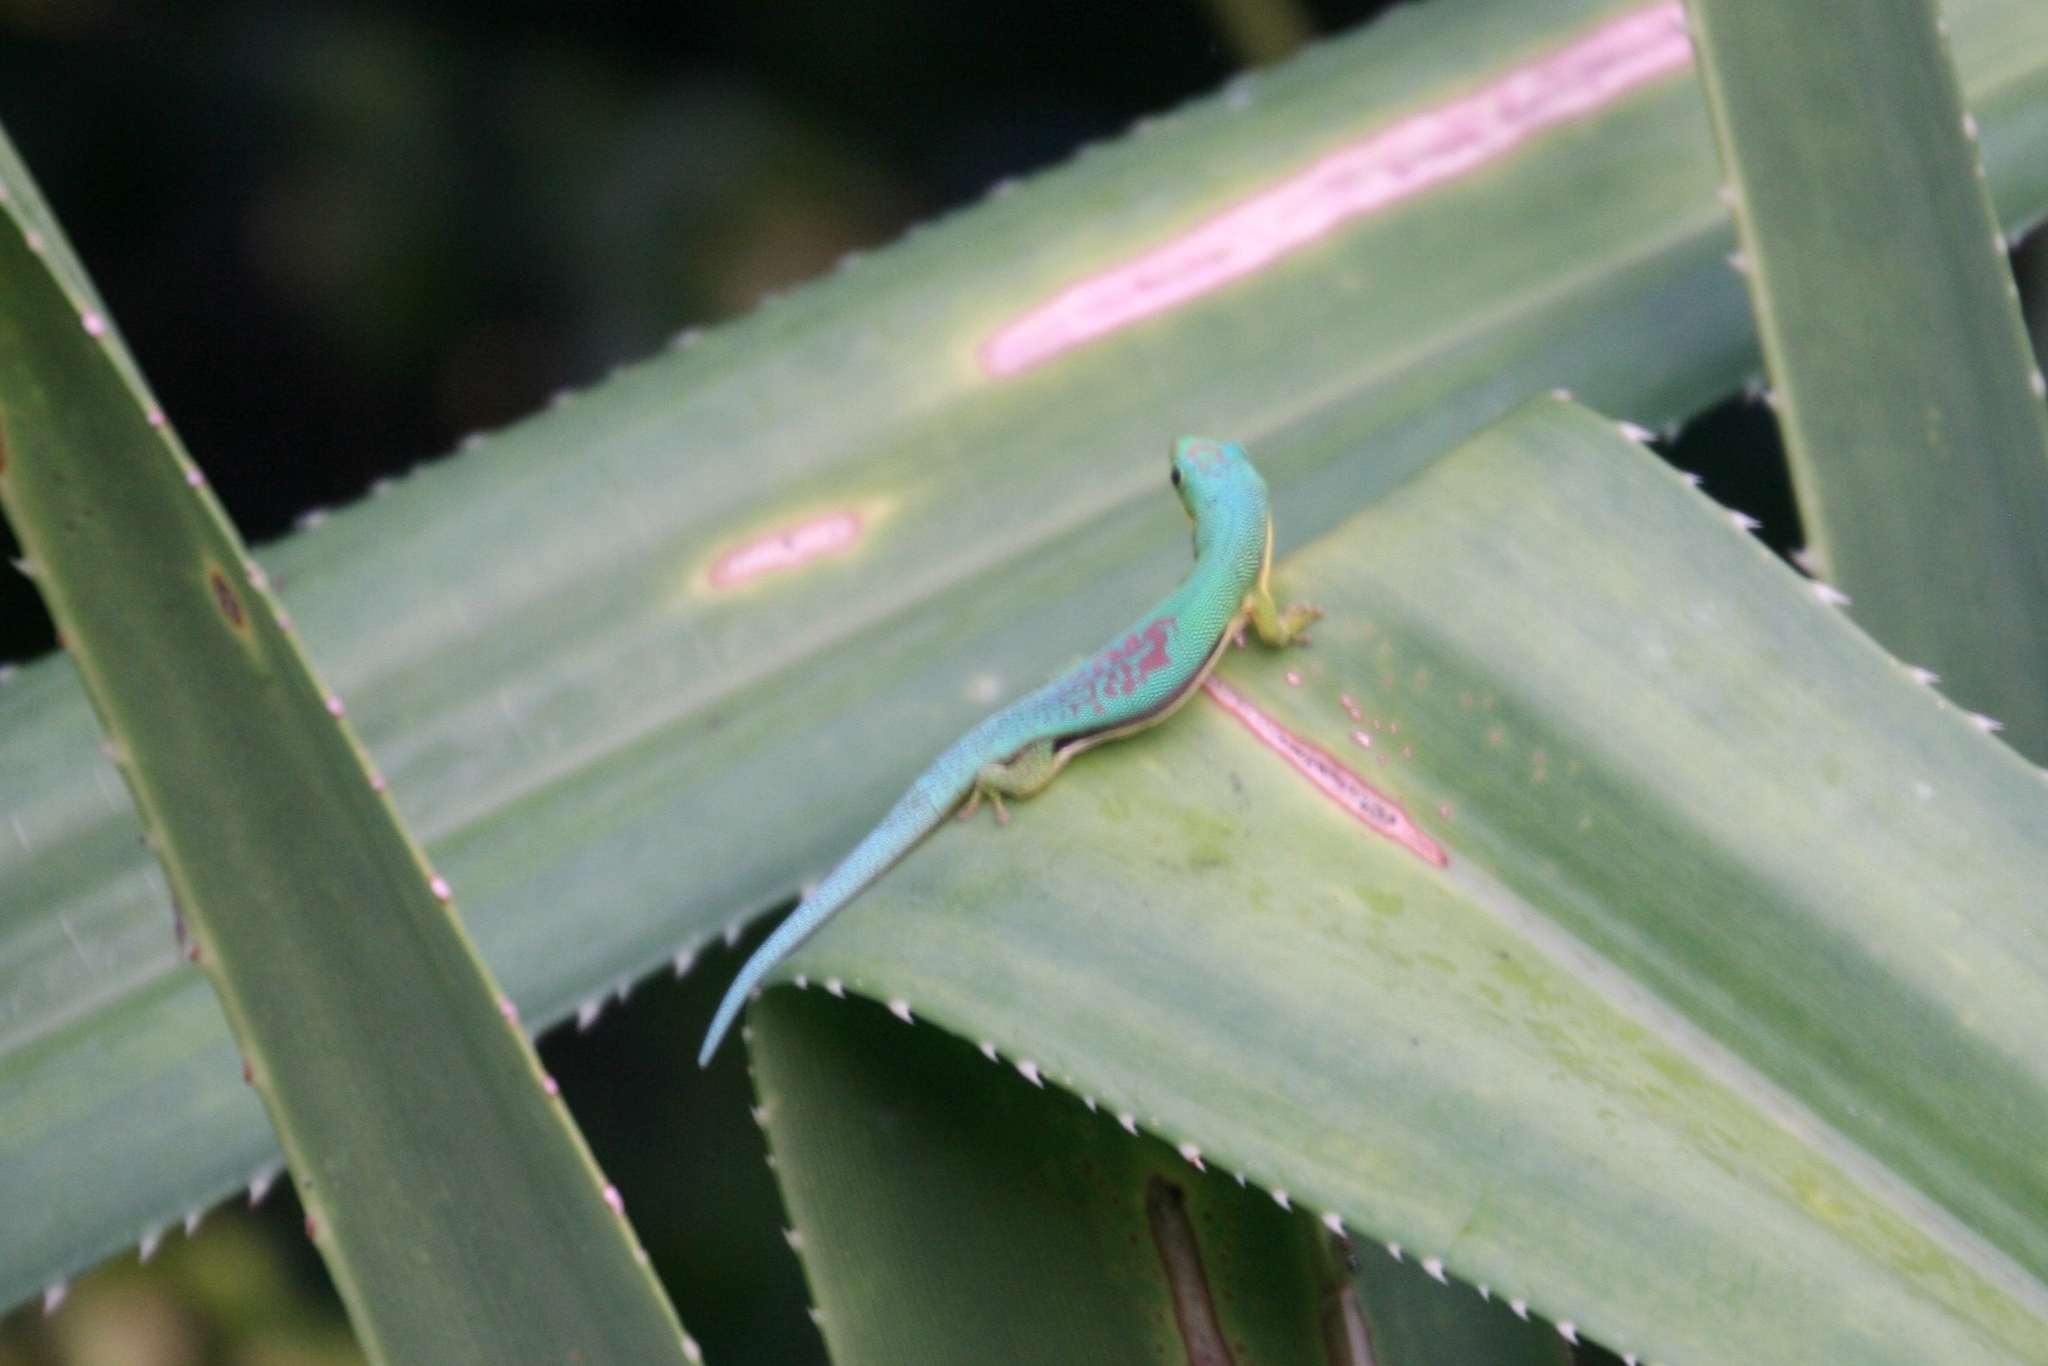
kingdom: Animalia
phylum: Chordata
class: Squamata
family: Gekkonidae
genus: Phelsuma
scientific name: Phelsuma lineata
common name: Lined day gecko
